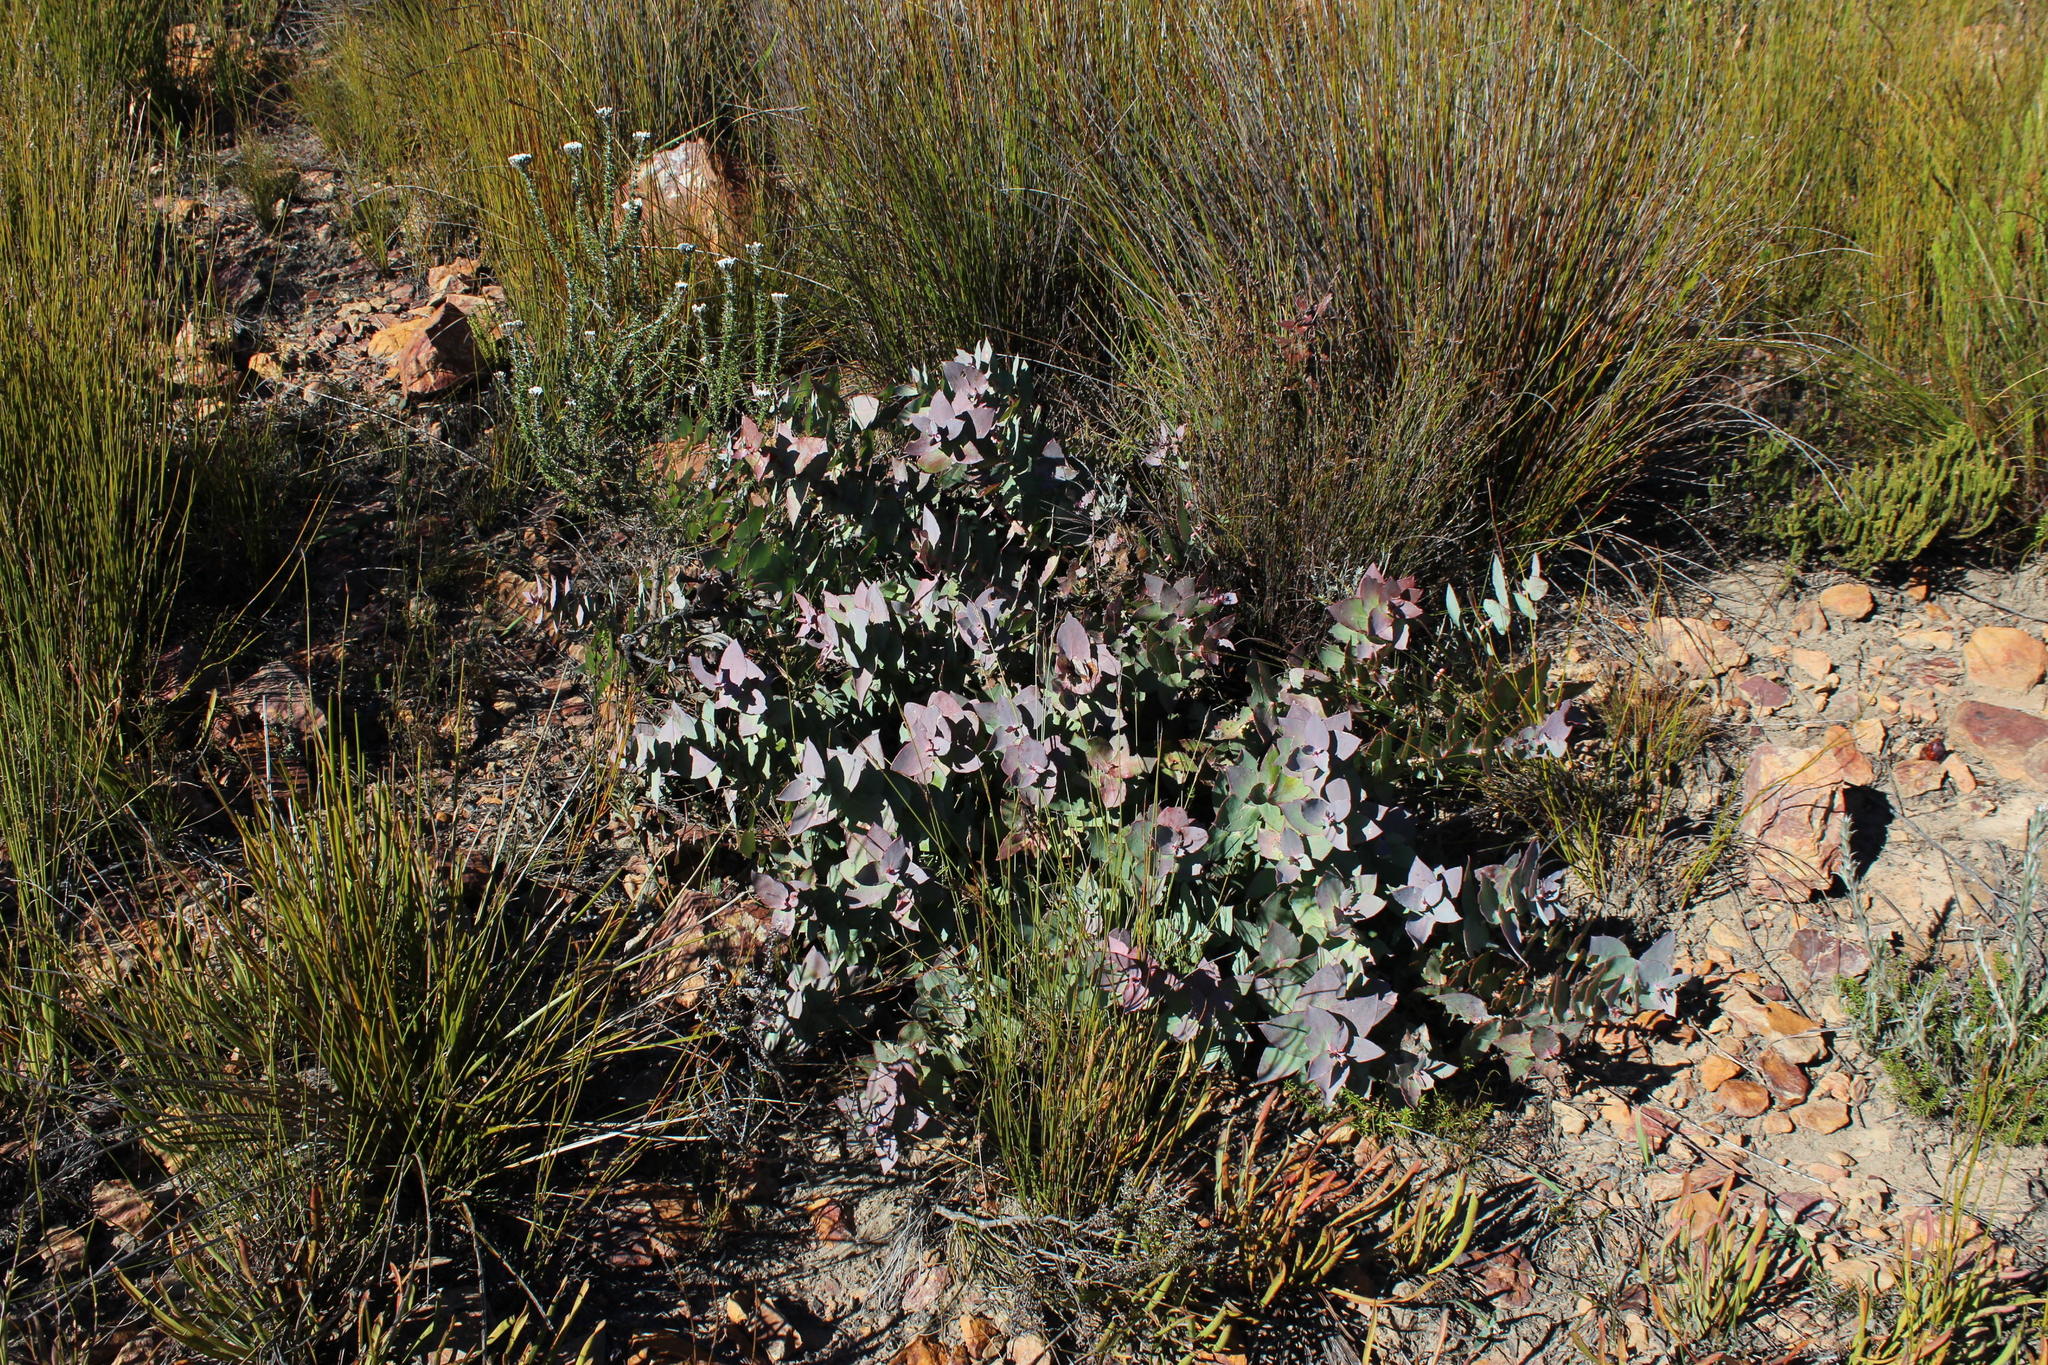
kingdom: Plantae
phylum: Tracheophyta
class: Magnoliopsida
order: Proteales
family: Proteaceae
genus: Protea
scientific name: Protea amplexicaulis
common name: Clasping-leaf sugarbush
